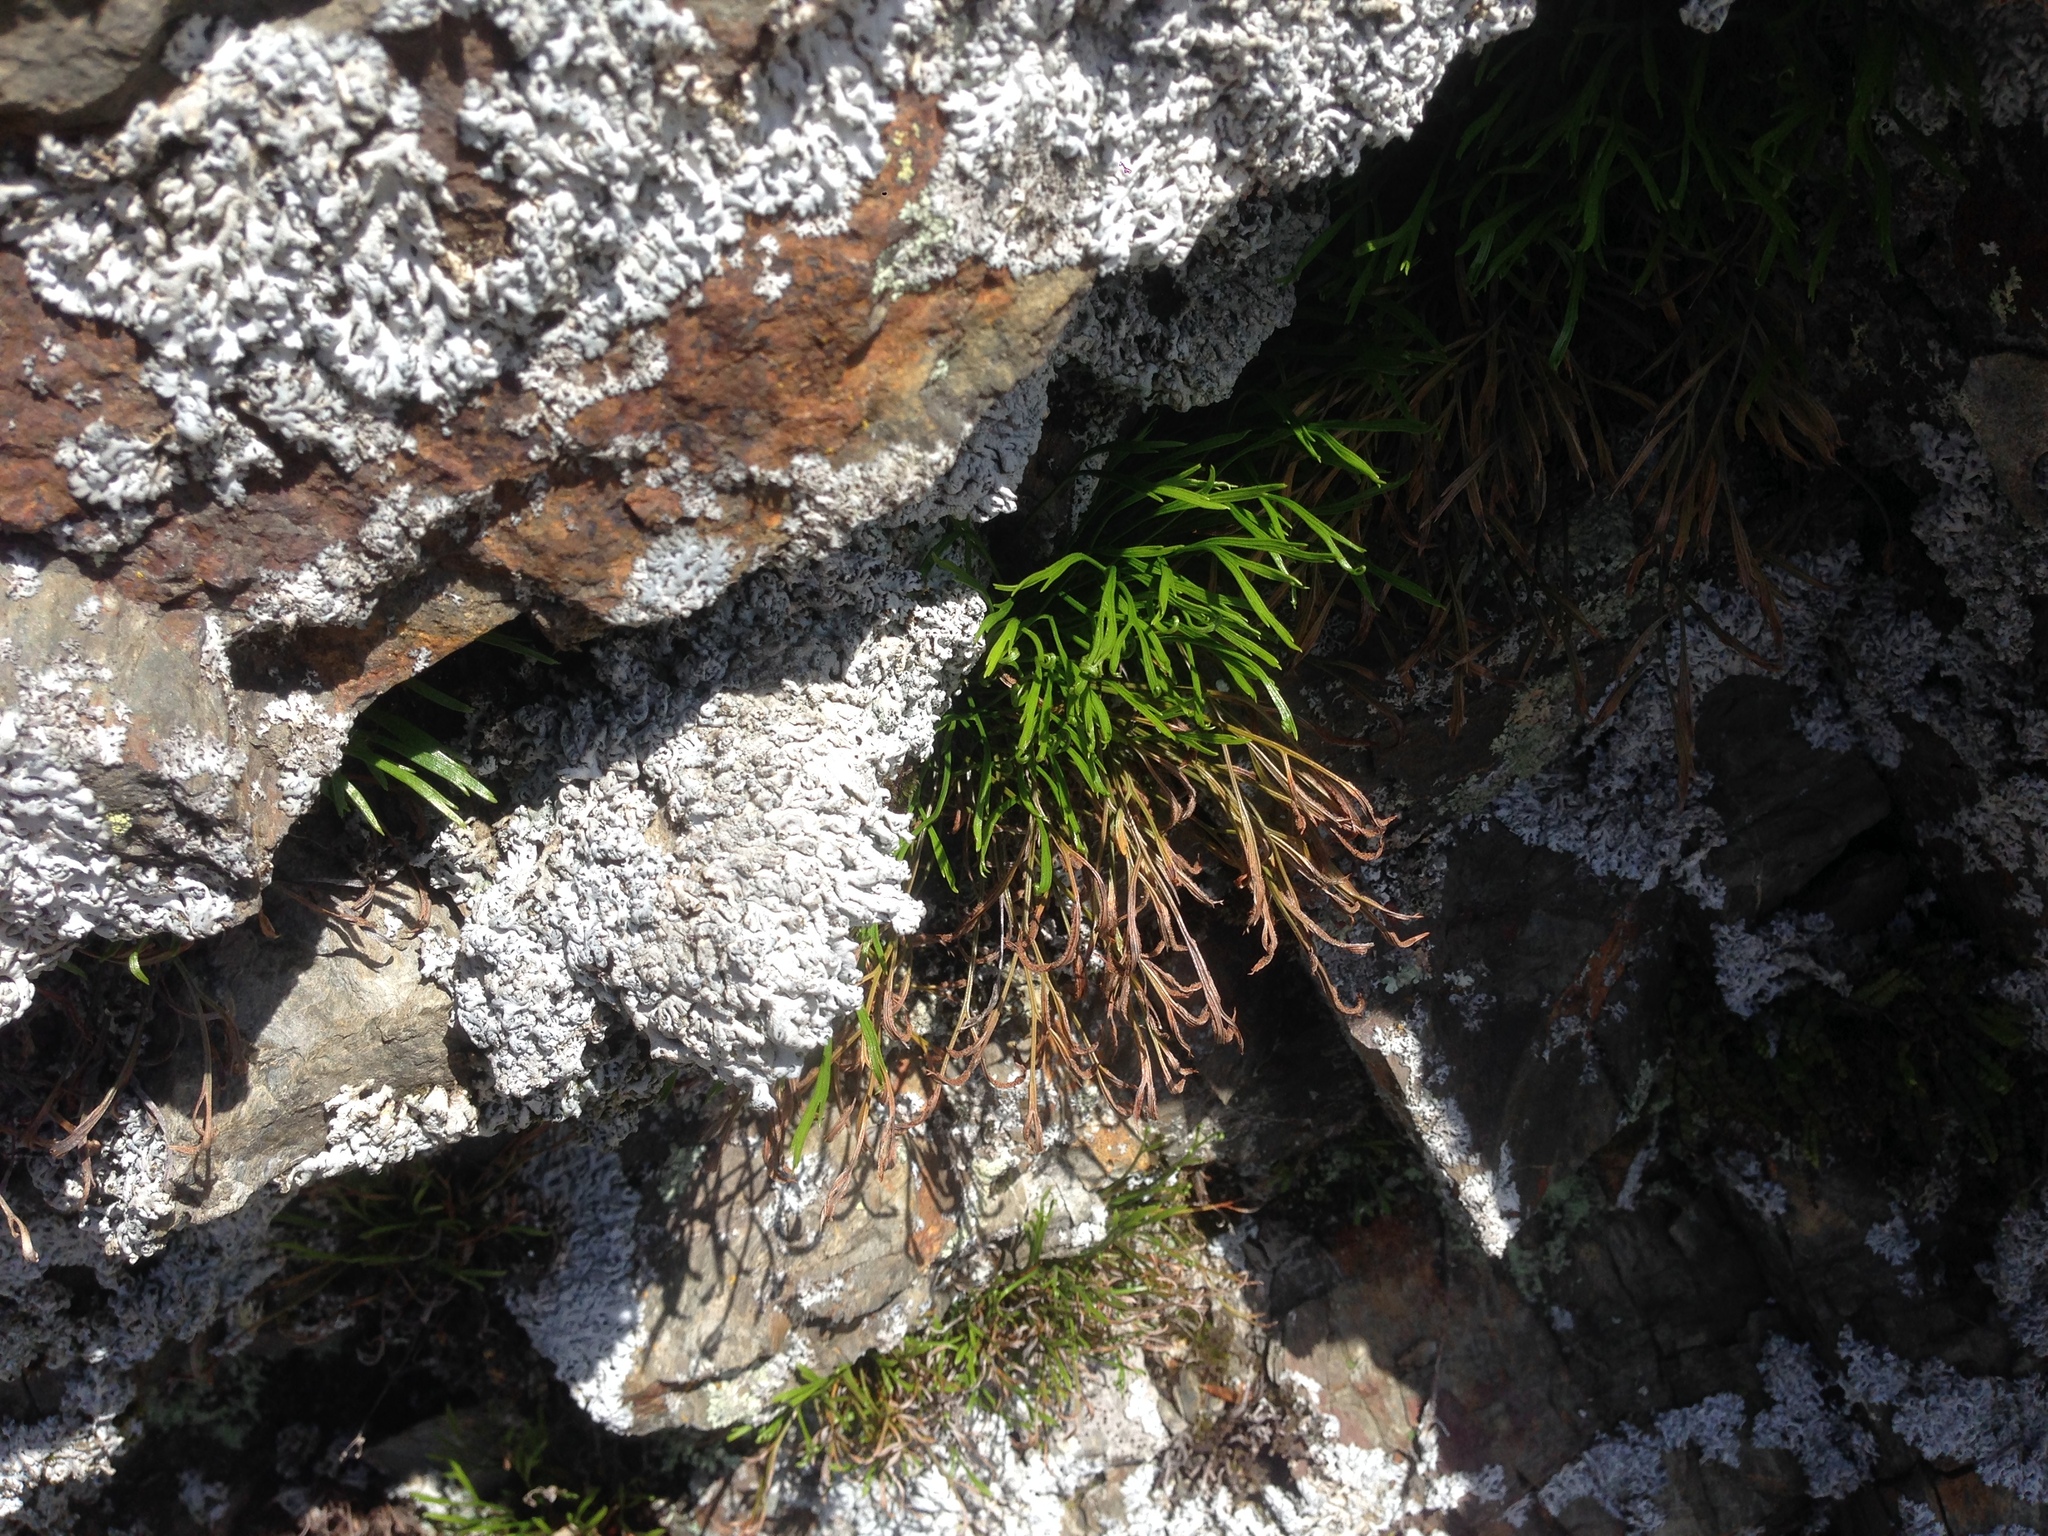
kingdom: Plantae
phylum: Tracheophyta
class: Polypodiopsida
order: Polypodiales
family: Aspleniaceae
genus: Asplenium
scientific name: Asplenium septentrionale
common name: Forked spleenwort
